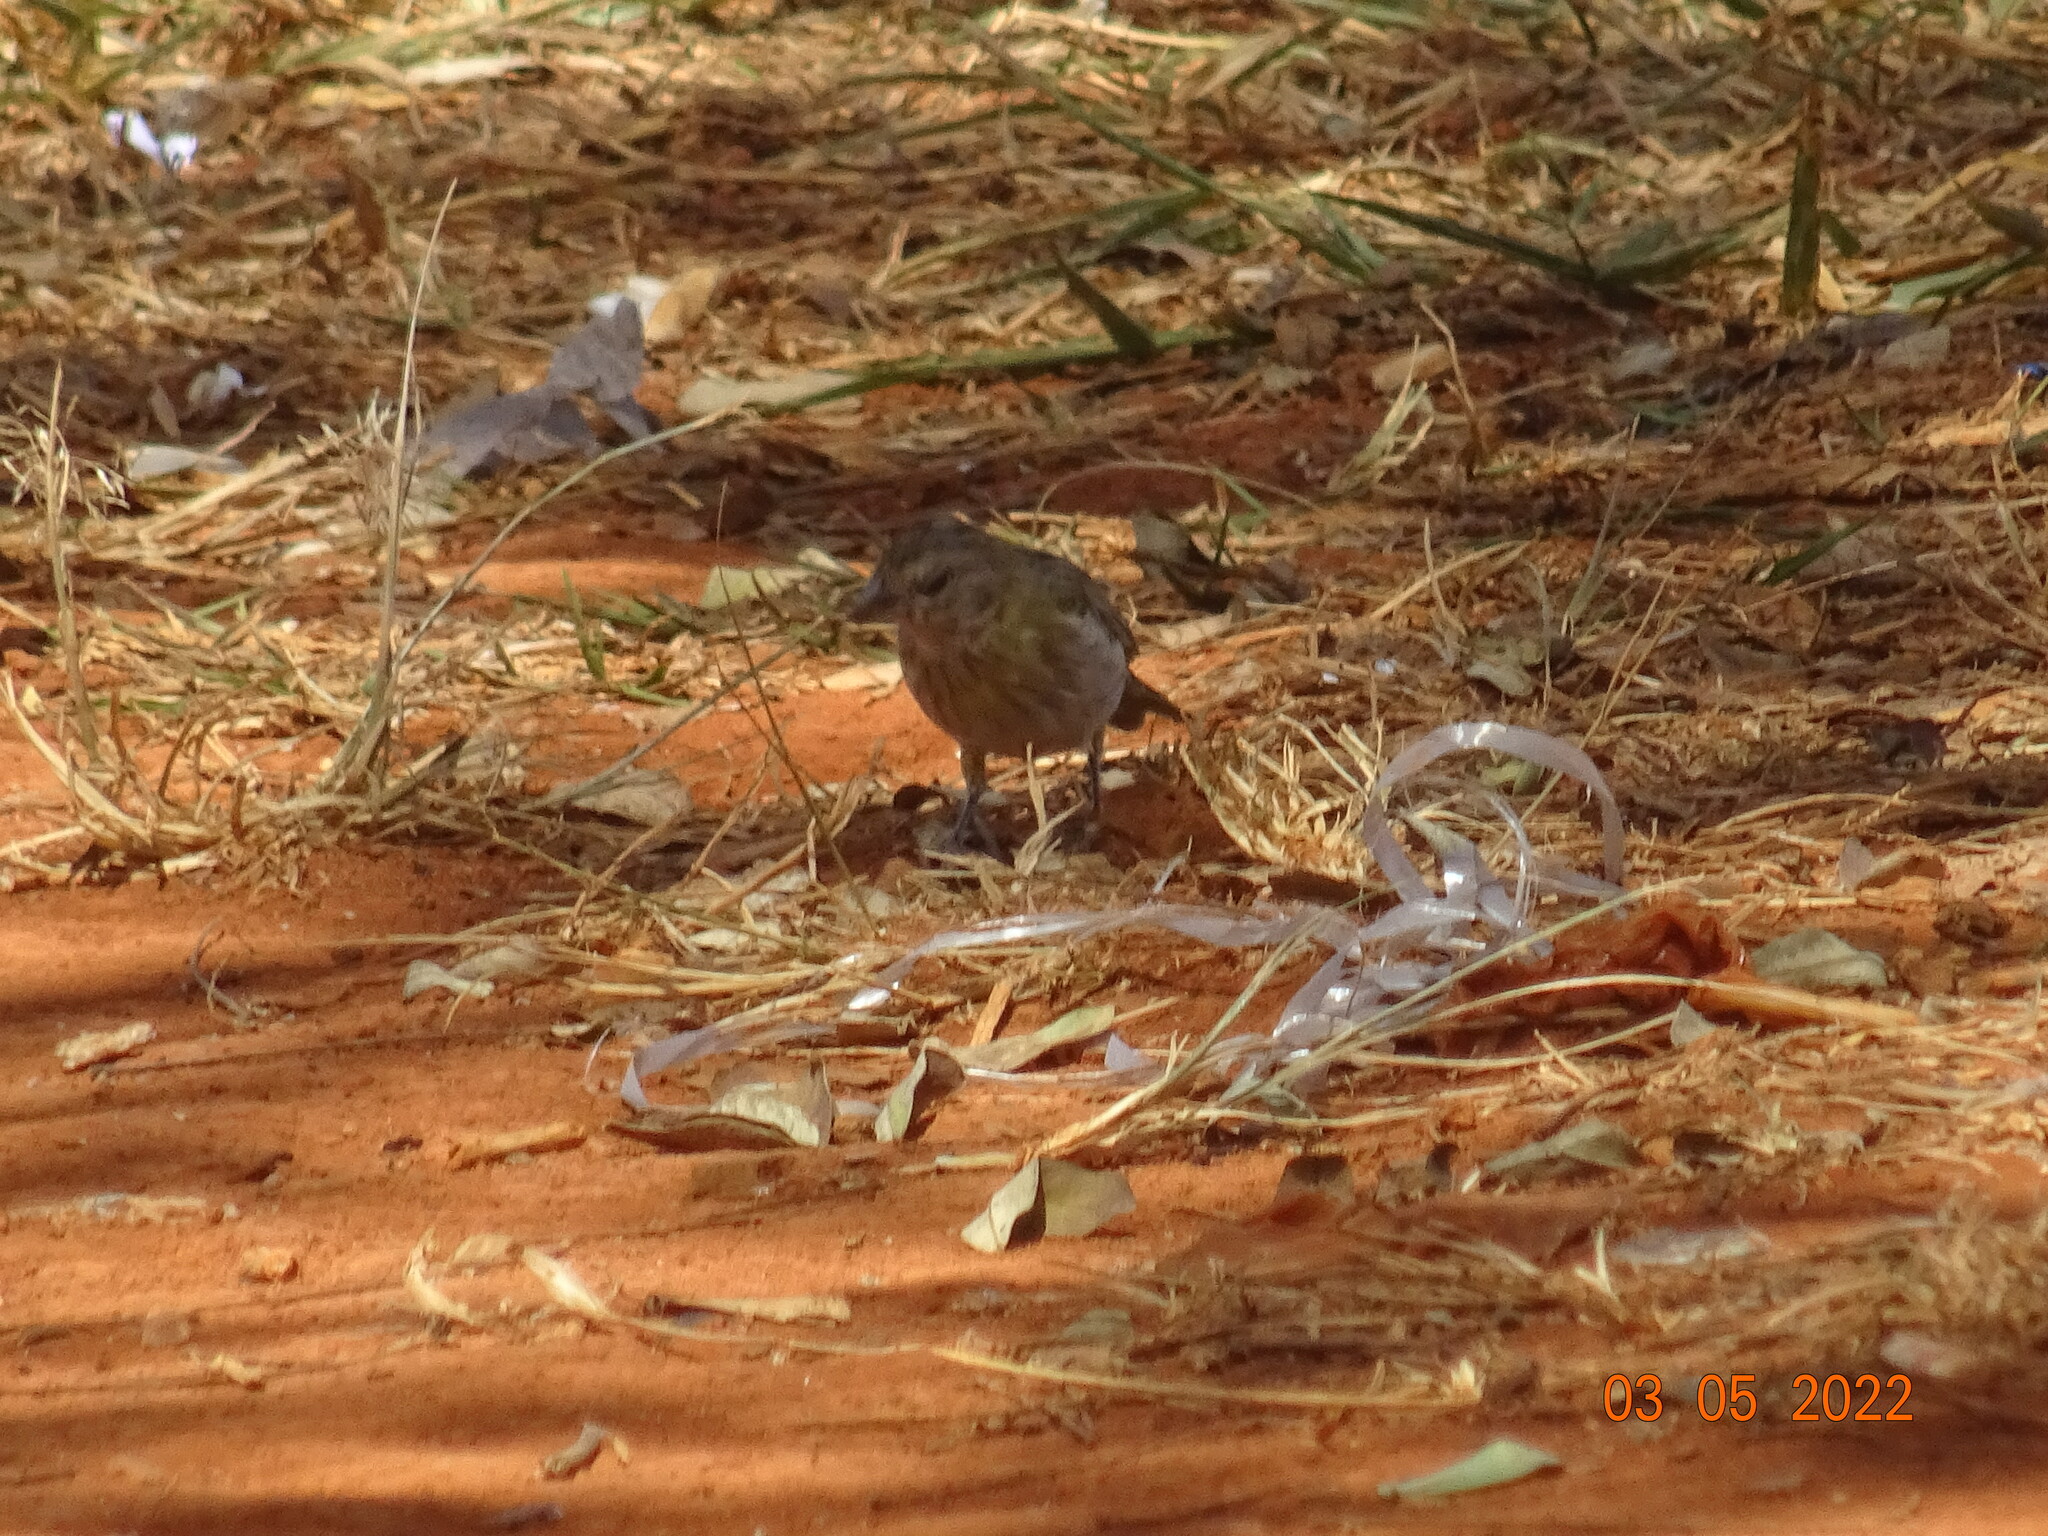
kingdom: Animalia
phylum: Chordata
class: Aves
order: Passeriformes
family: Thraupidae
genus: Sicalis
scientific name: Sicalis flaveola
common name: Saffron finch
